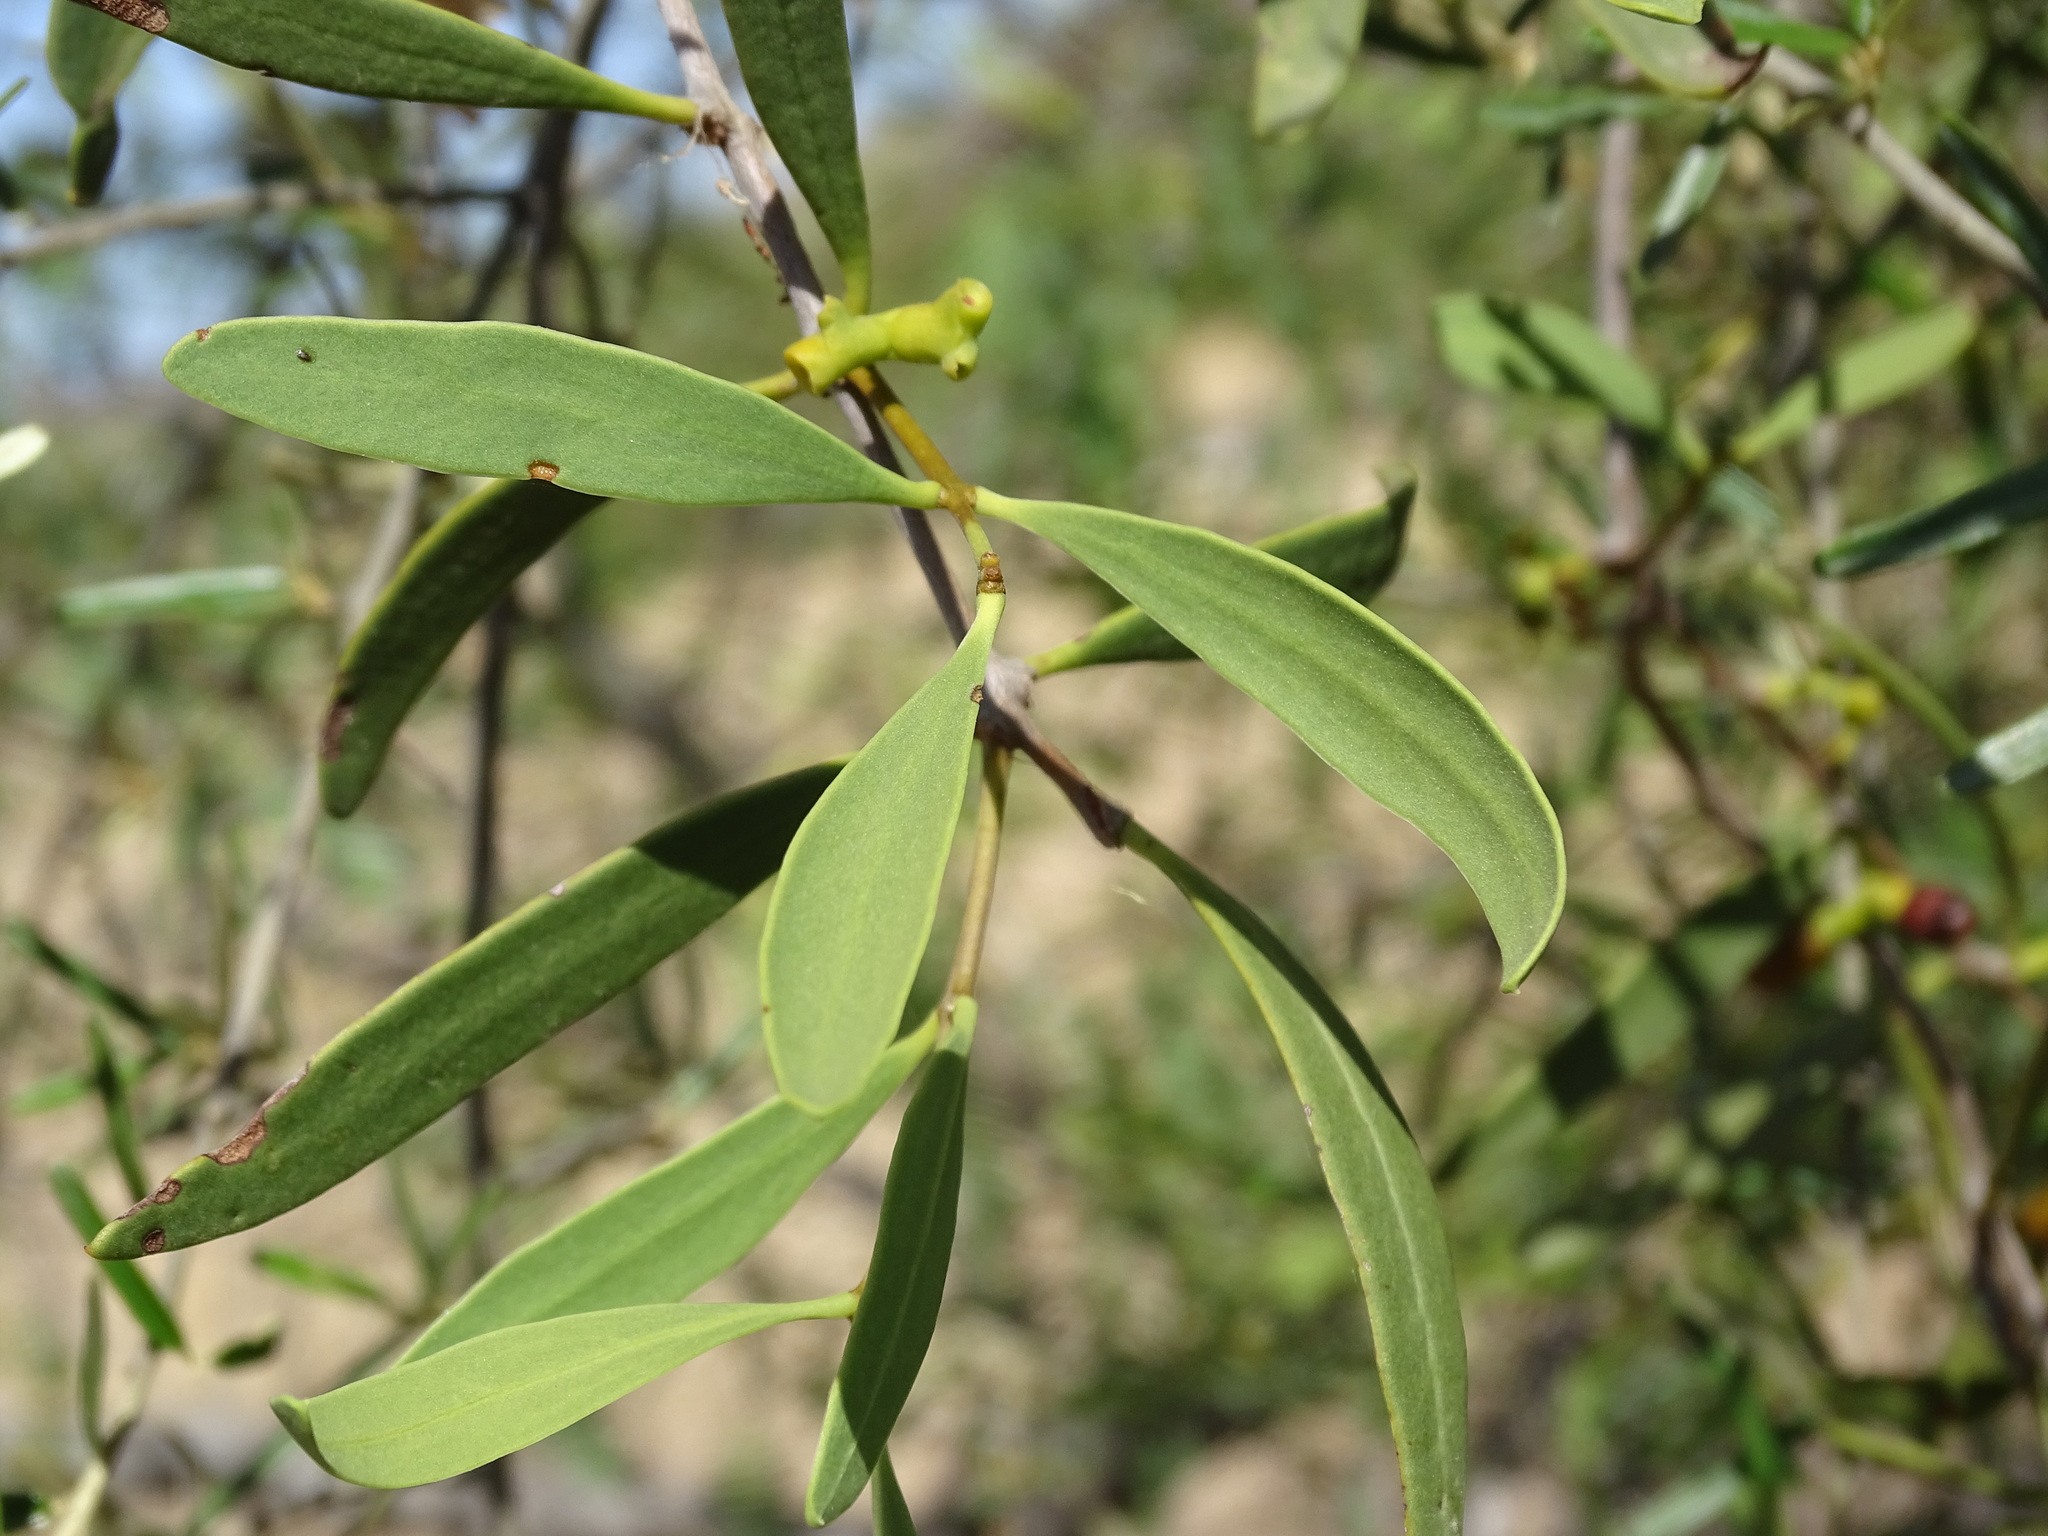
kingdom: Plantae
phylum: Tracheophyta
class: Magnoliopsida
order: Santalales
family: Loranthaceae
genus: Struthanthus
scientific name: Struthanthus palmeri
